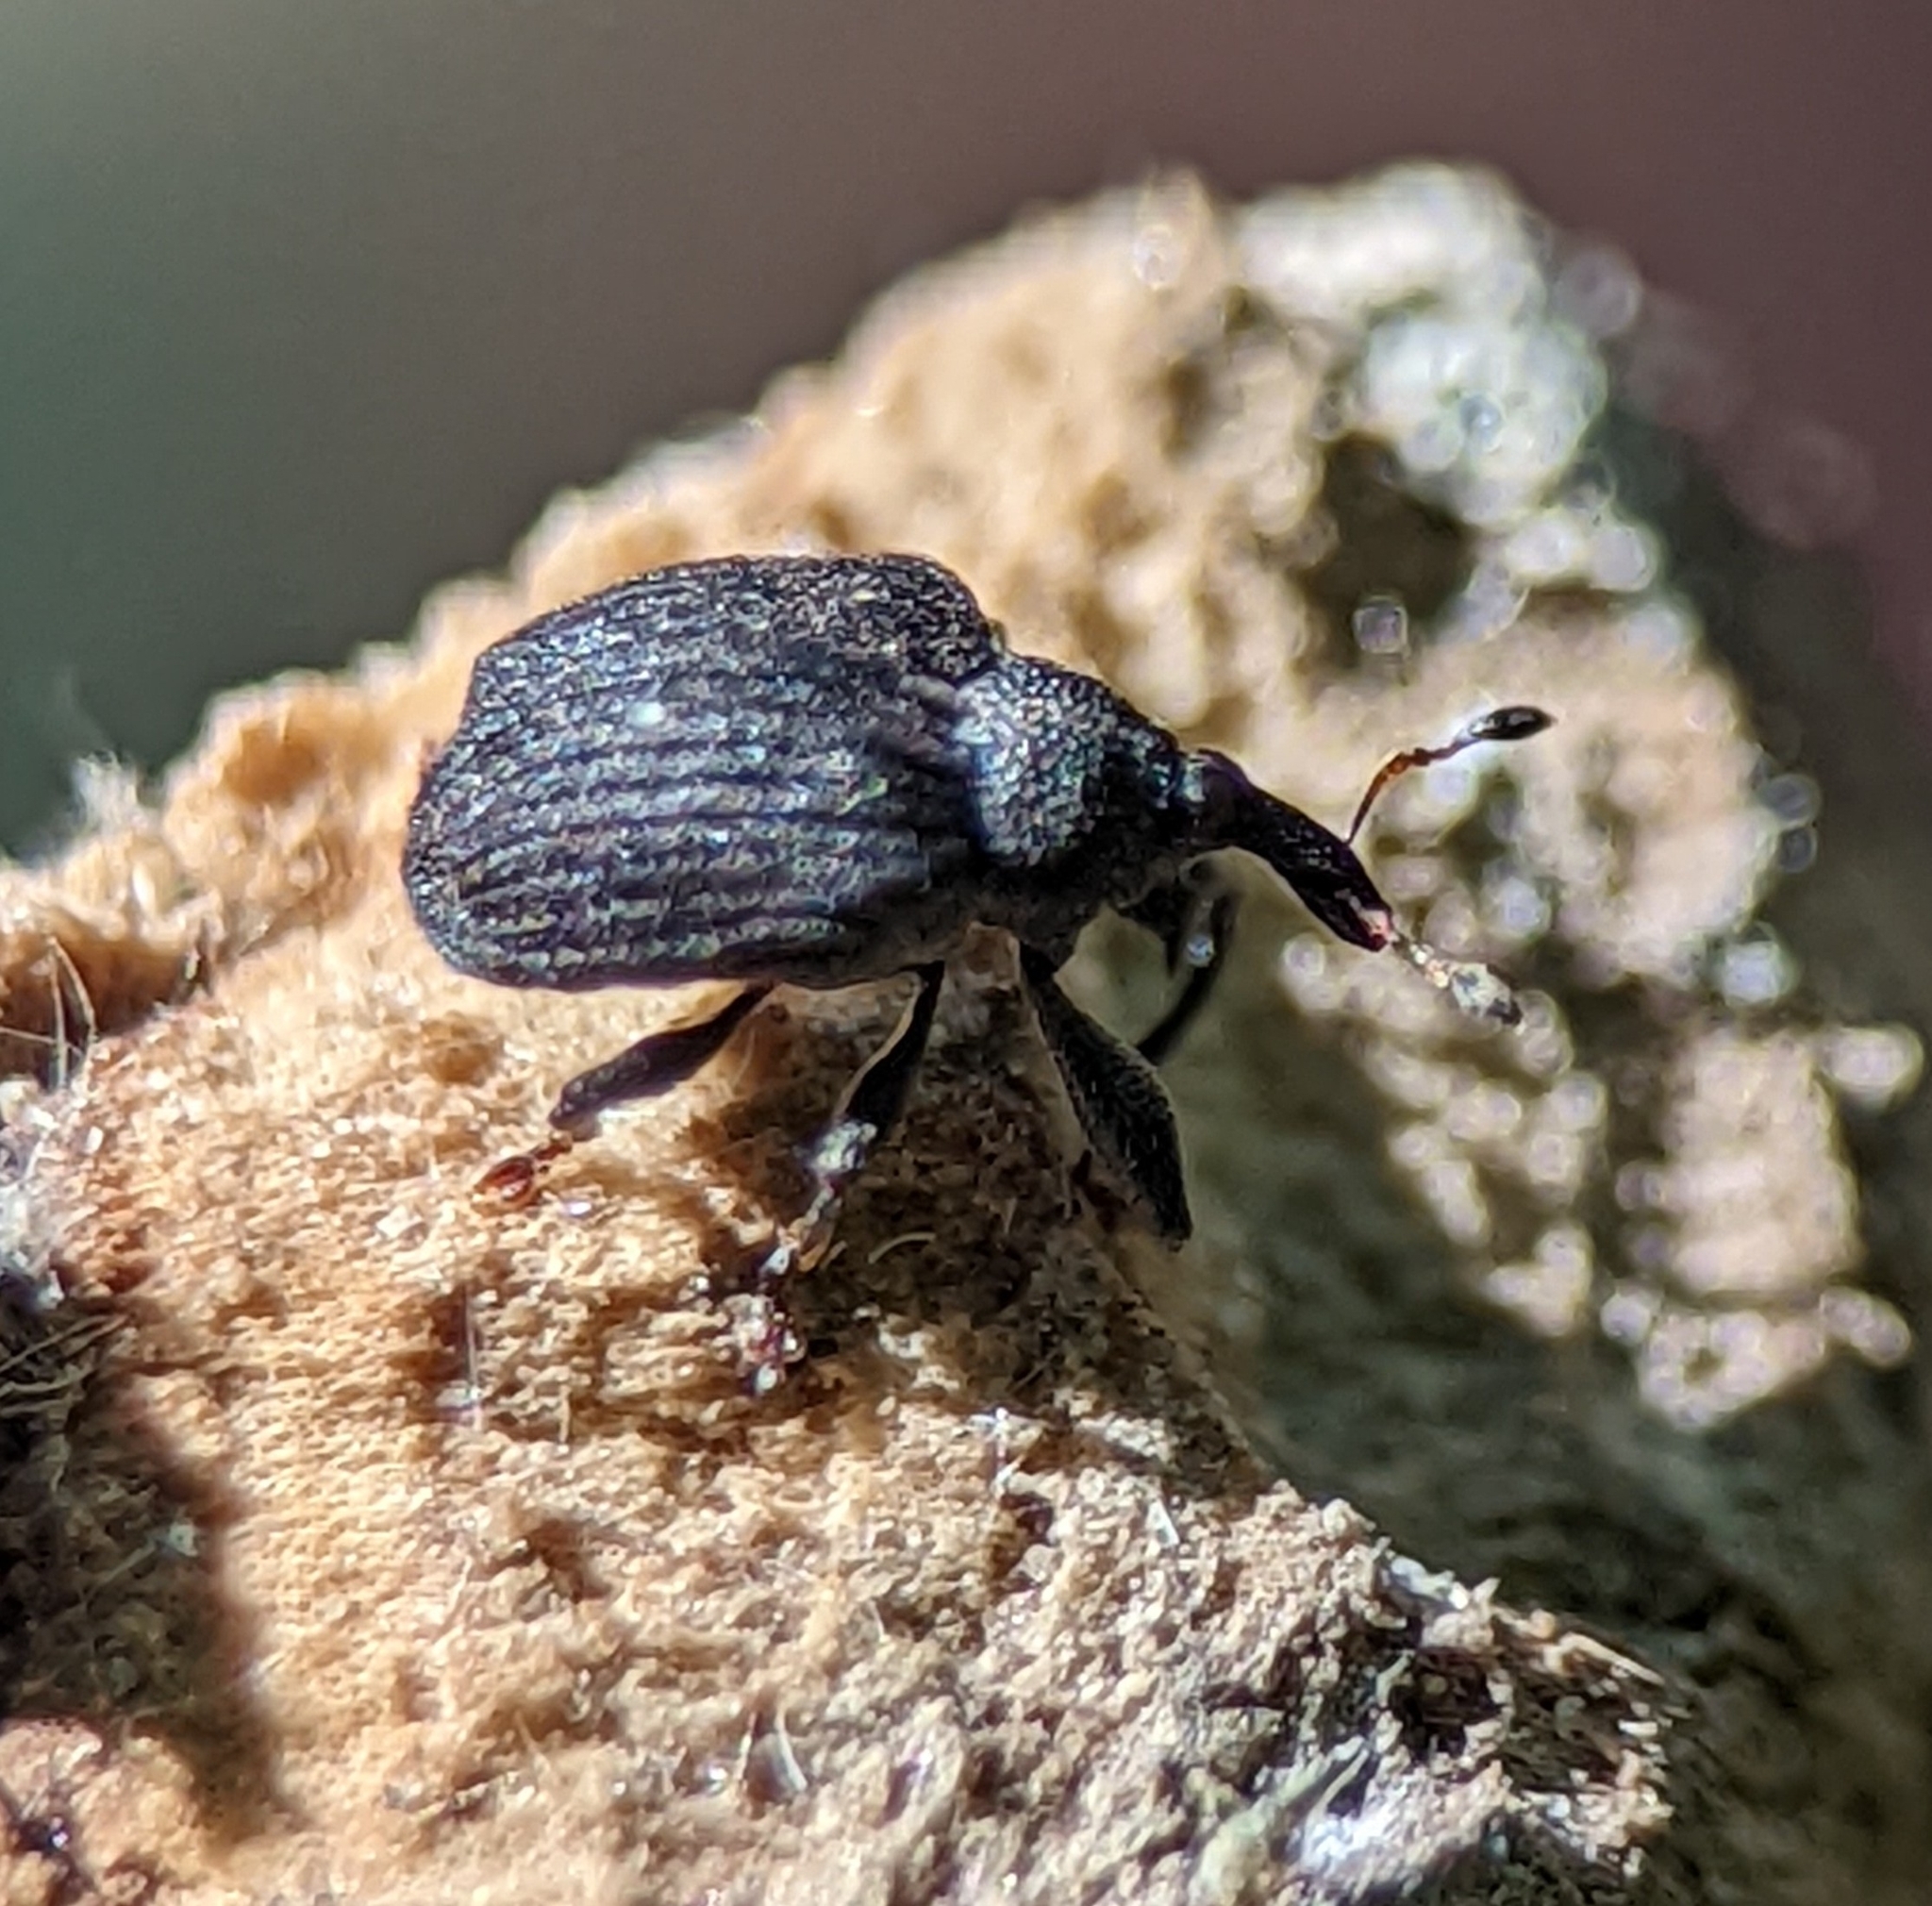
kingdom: Animalia
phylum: Arthropoda
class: Insecta
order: Coleoptera
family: Curculionidae
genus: Odontopus
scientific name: Odontopus calceatus
